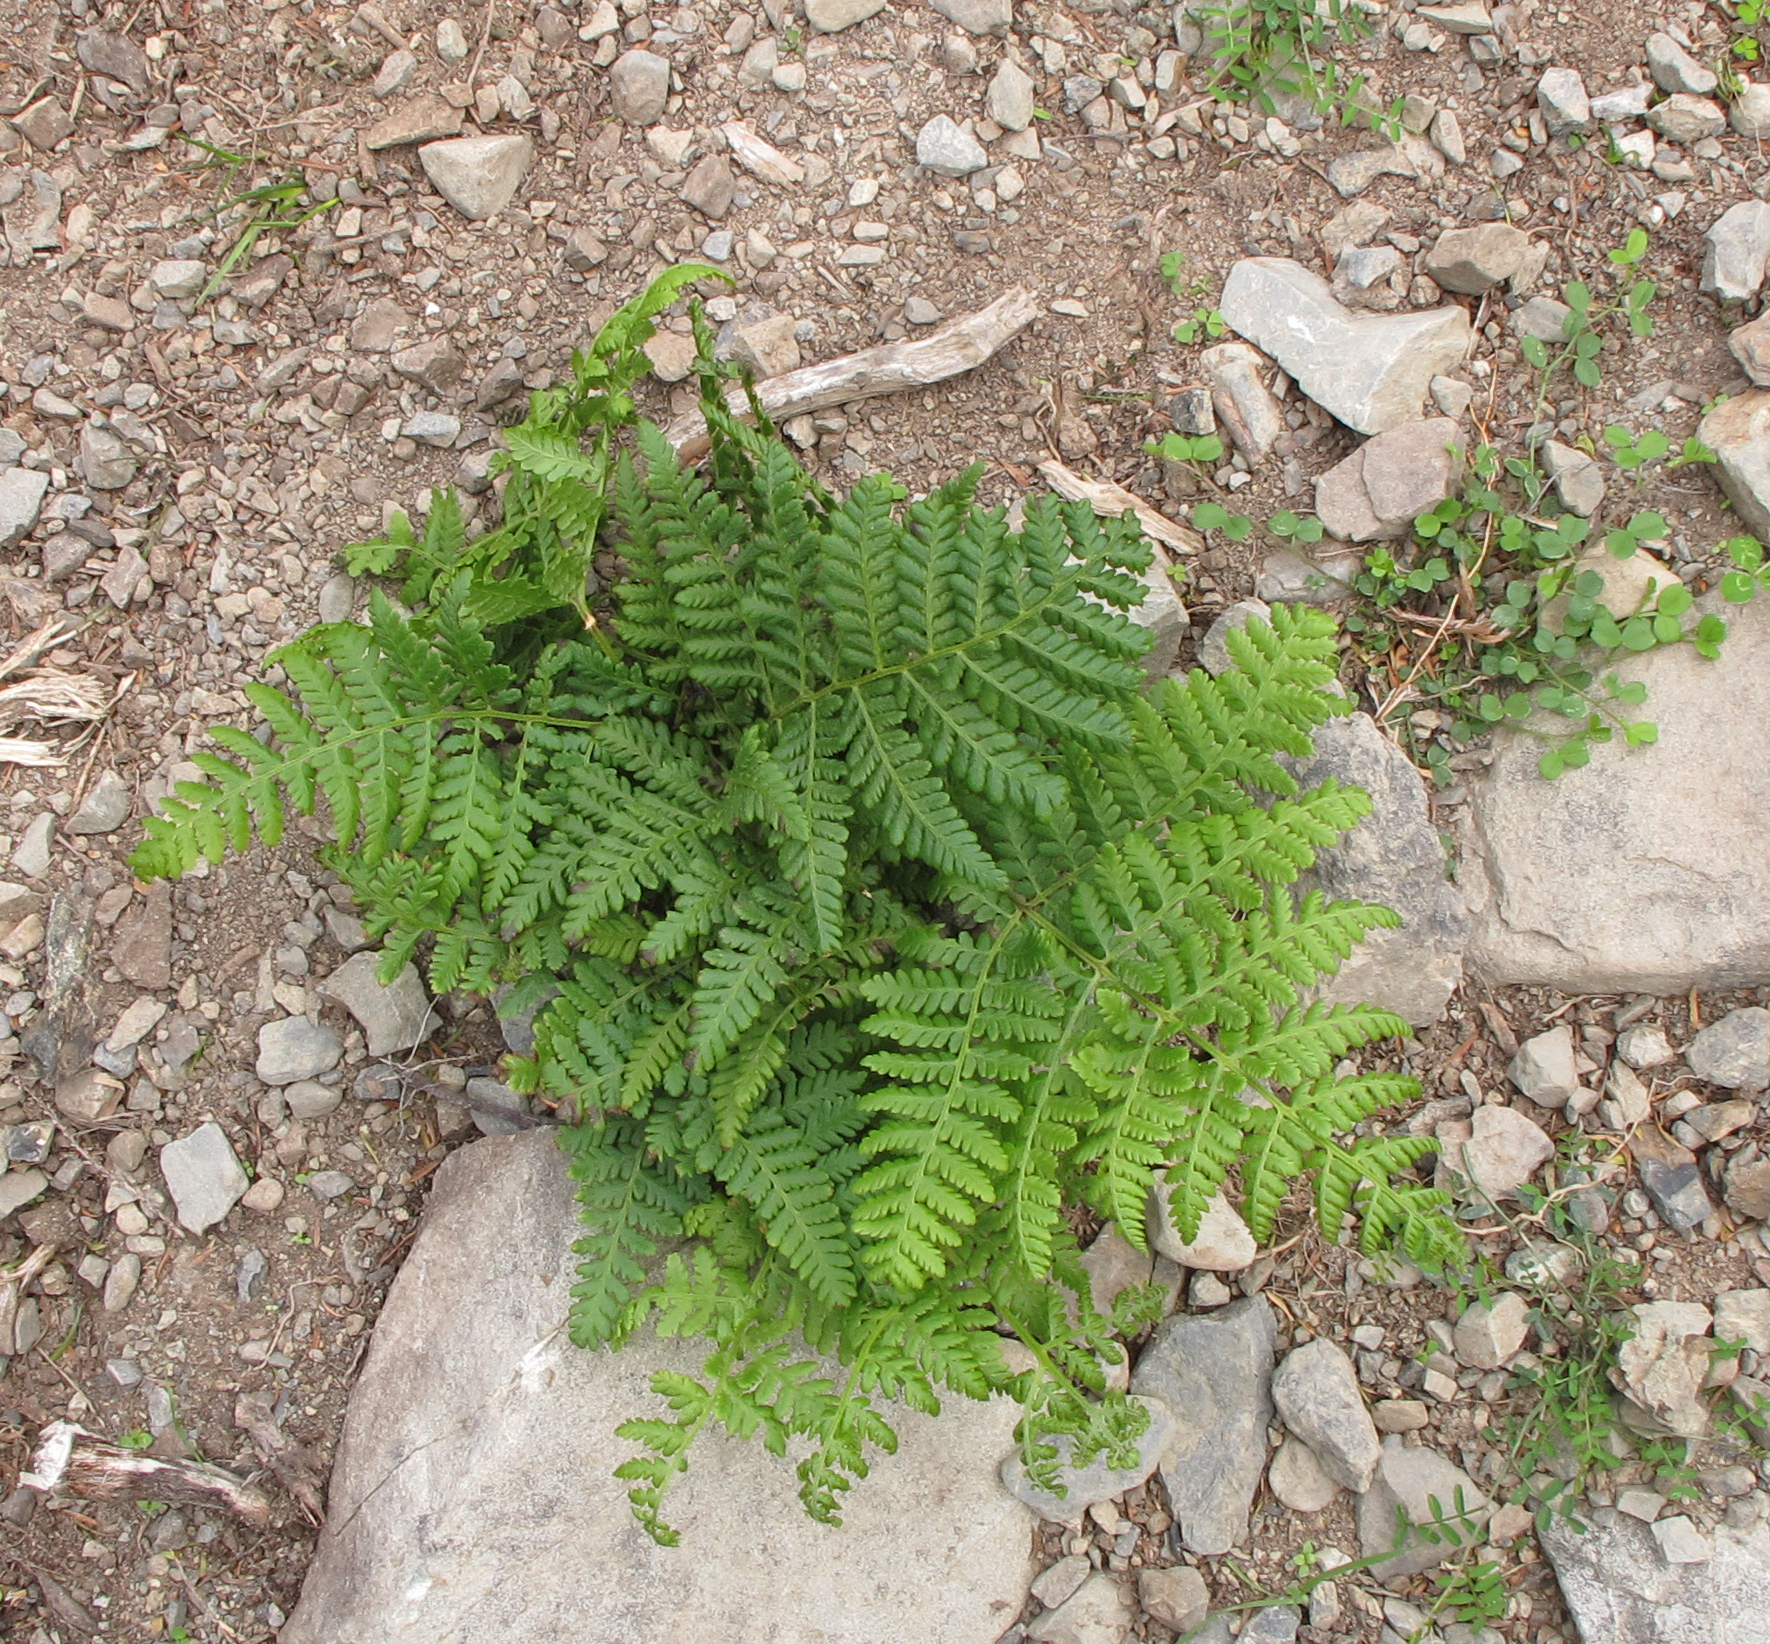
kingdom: Plantae
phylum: Tracheophyta
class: Polypodiopsida
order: Polypodiales
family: Dennstaedtiaceae
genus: Hypolepis
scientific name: Hypolepis ambigua
